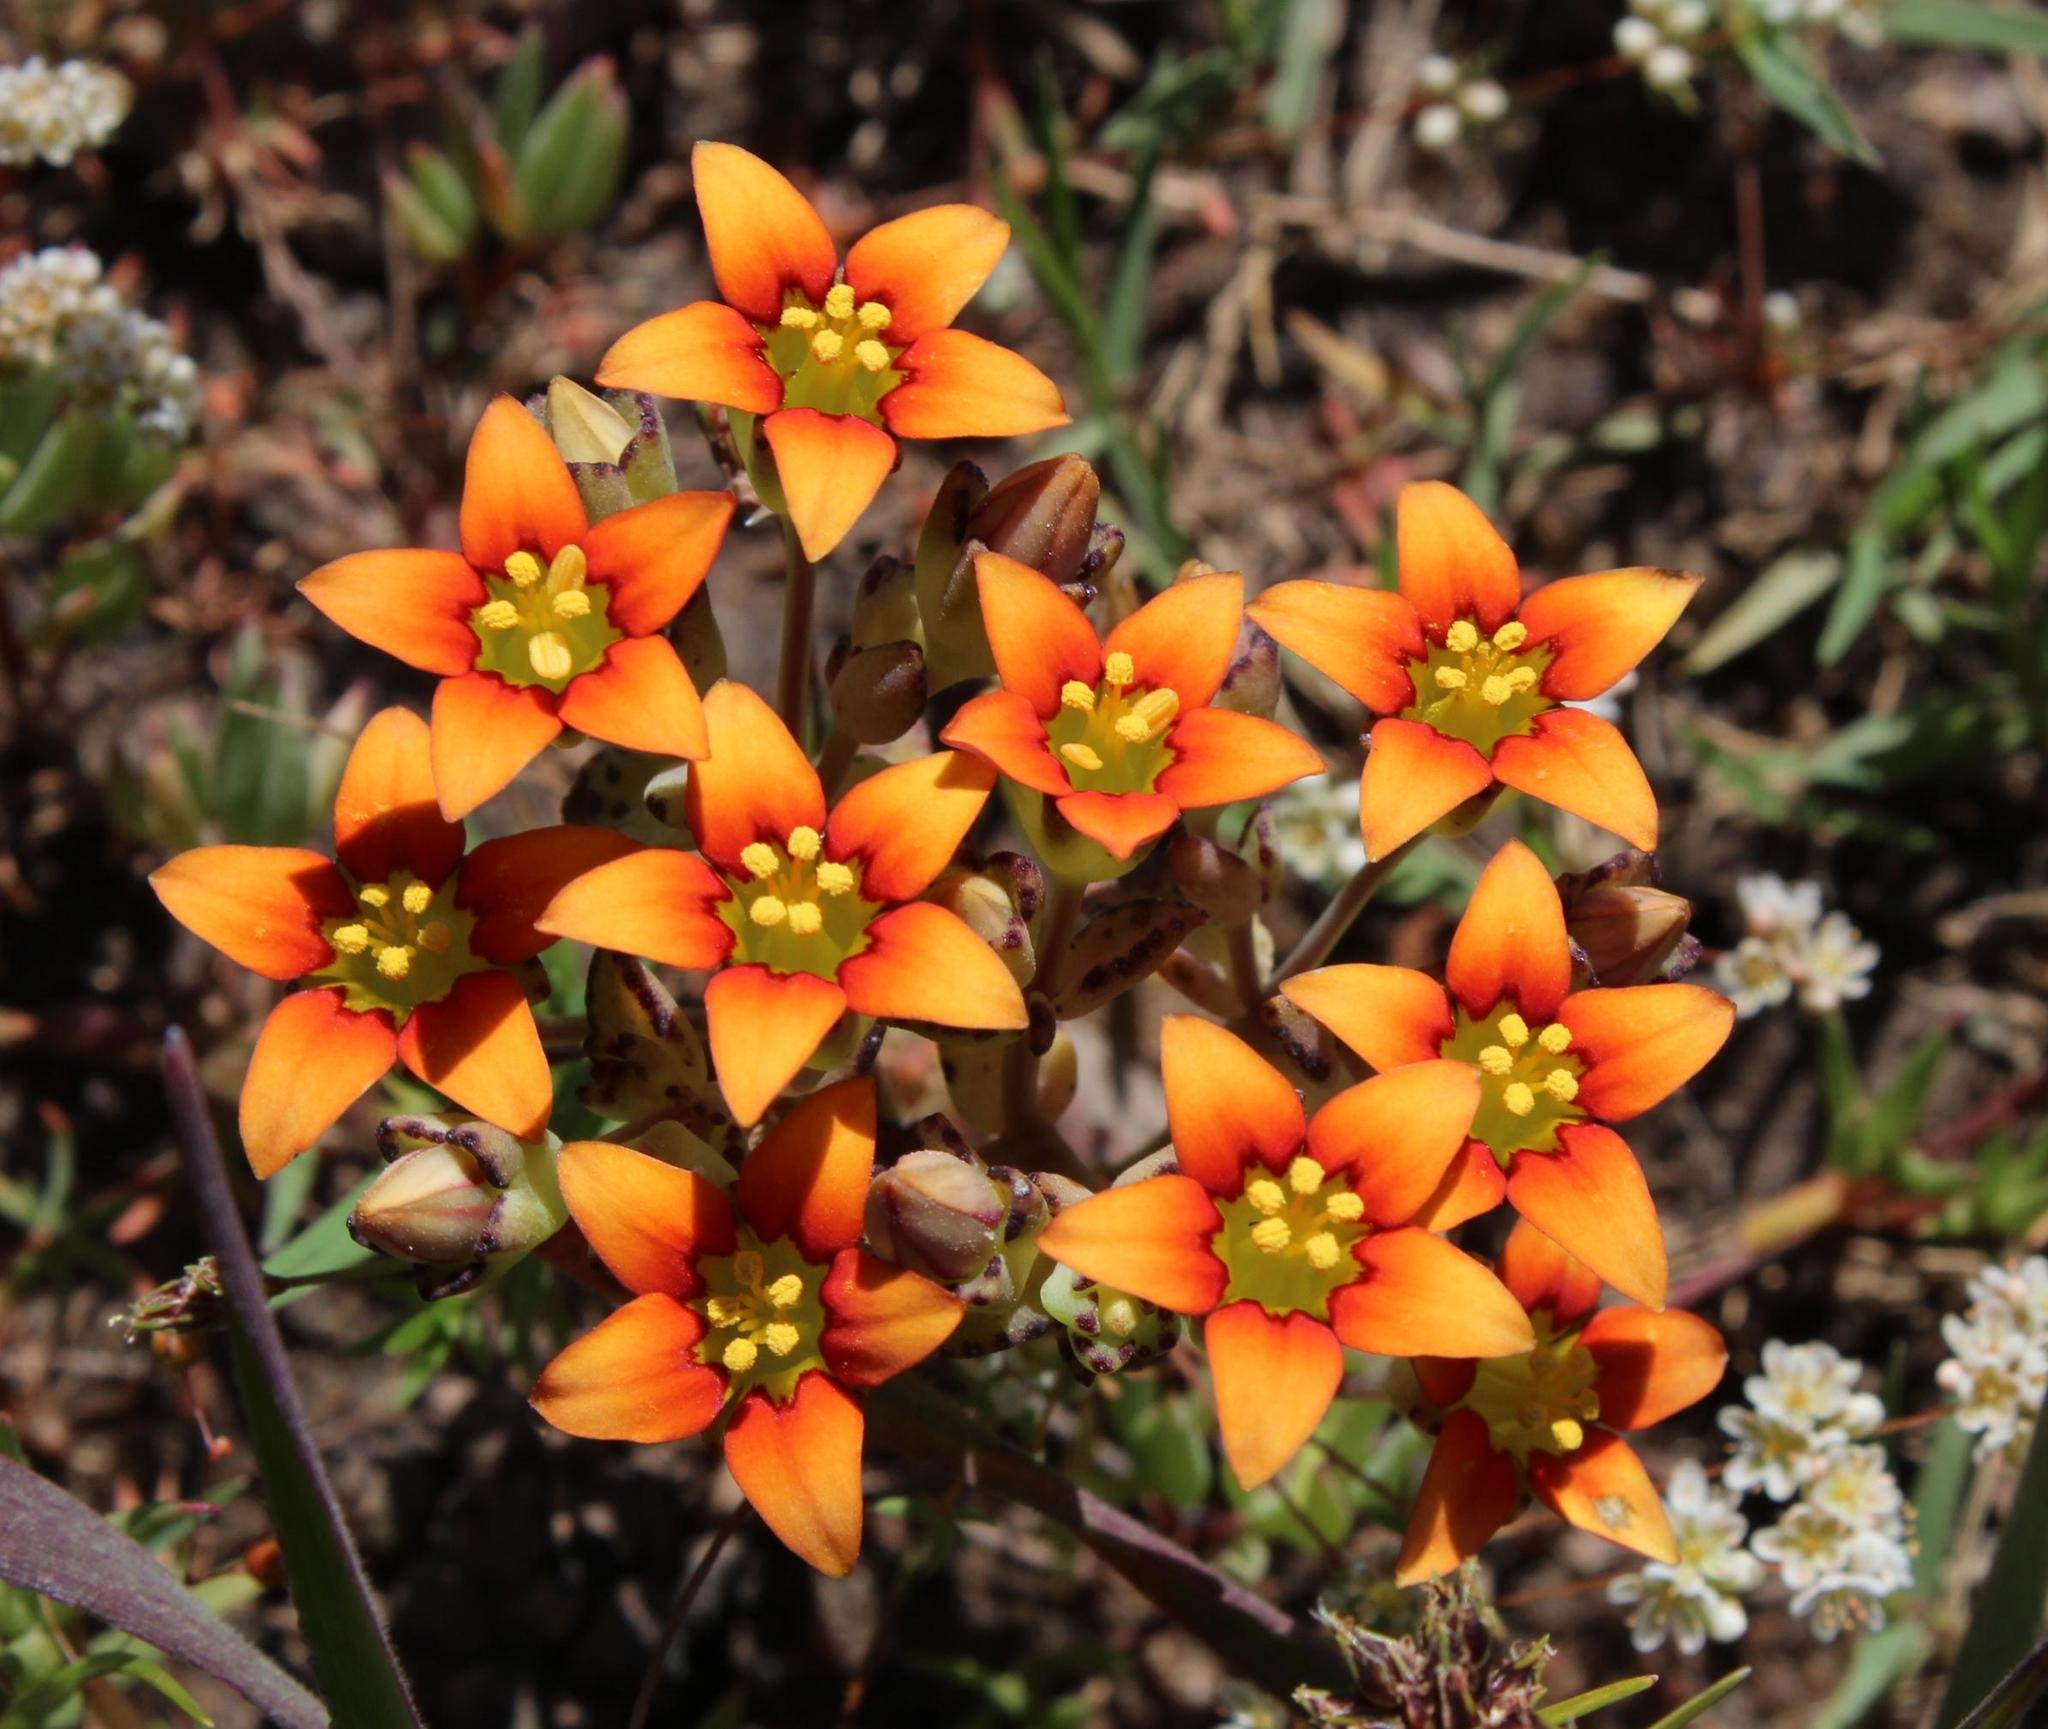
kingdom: Plantae
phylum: Tracheophyta
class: Magnoliopsida
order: Saxifragales
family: Crassulaceae
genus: Crassula
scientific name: Crassula dichotoma
